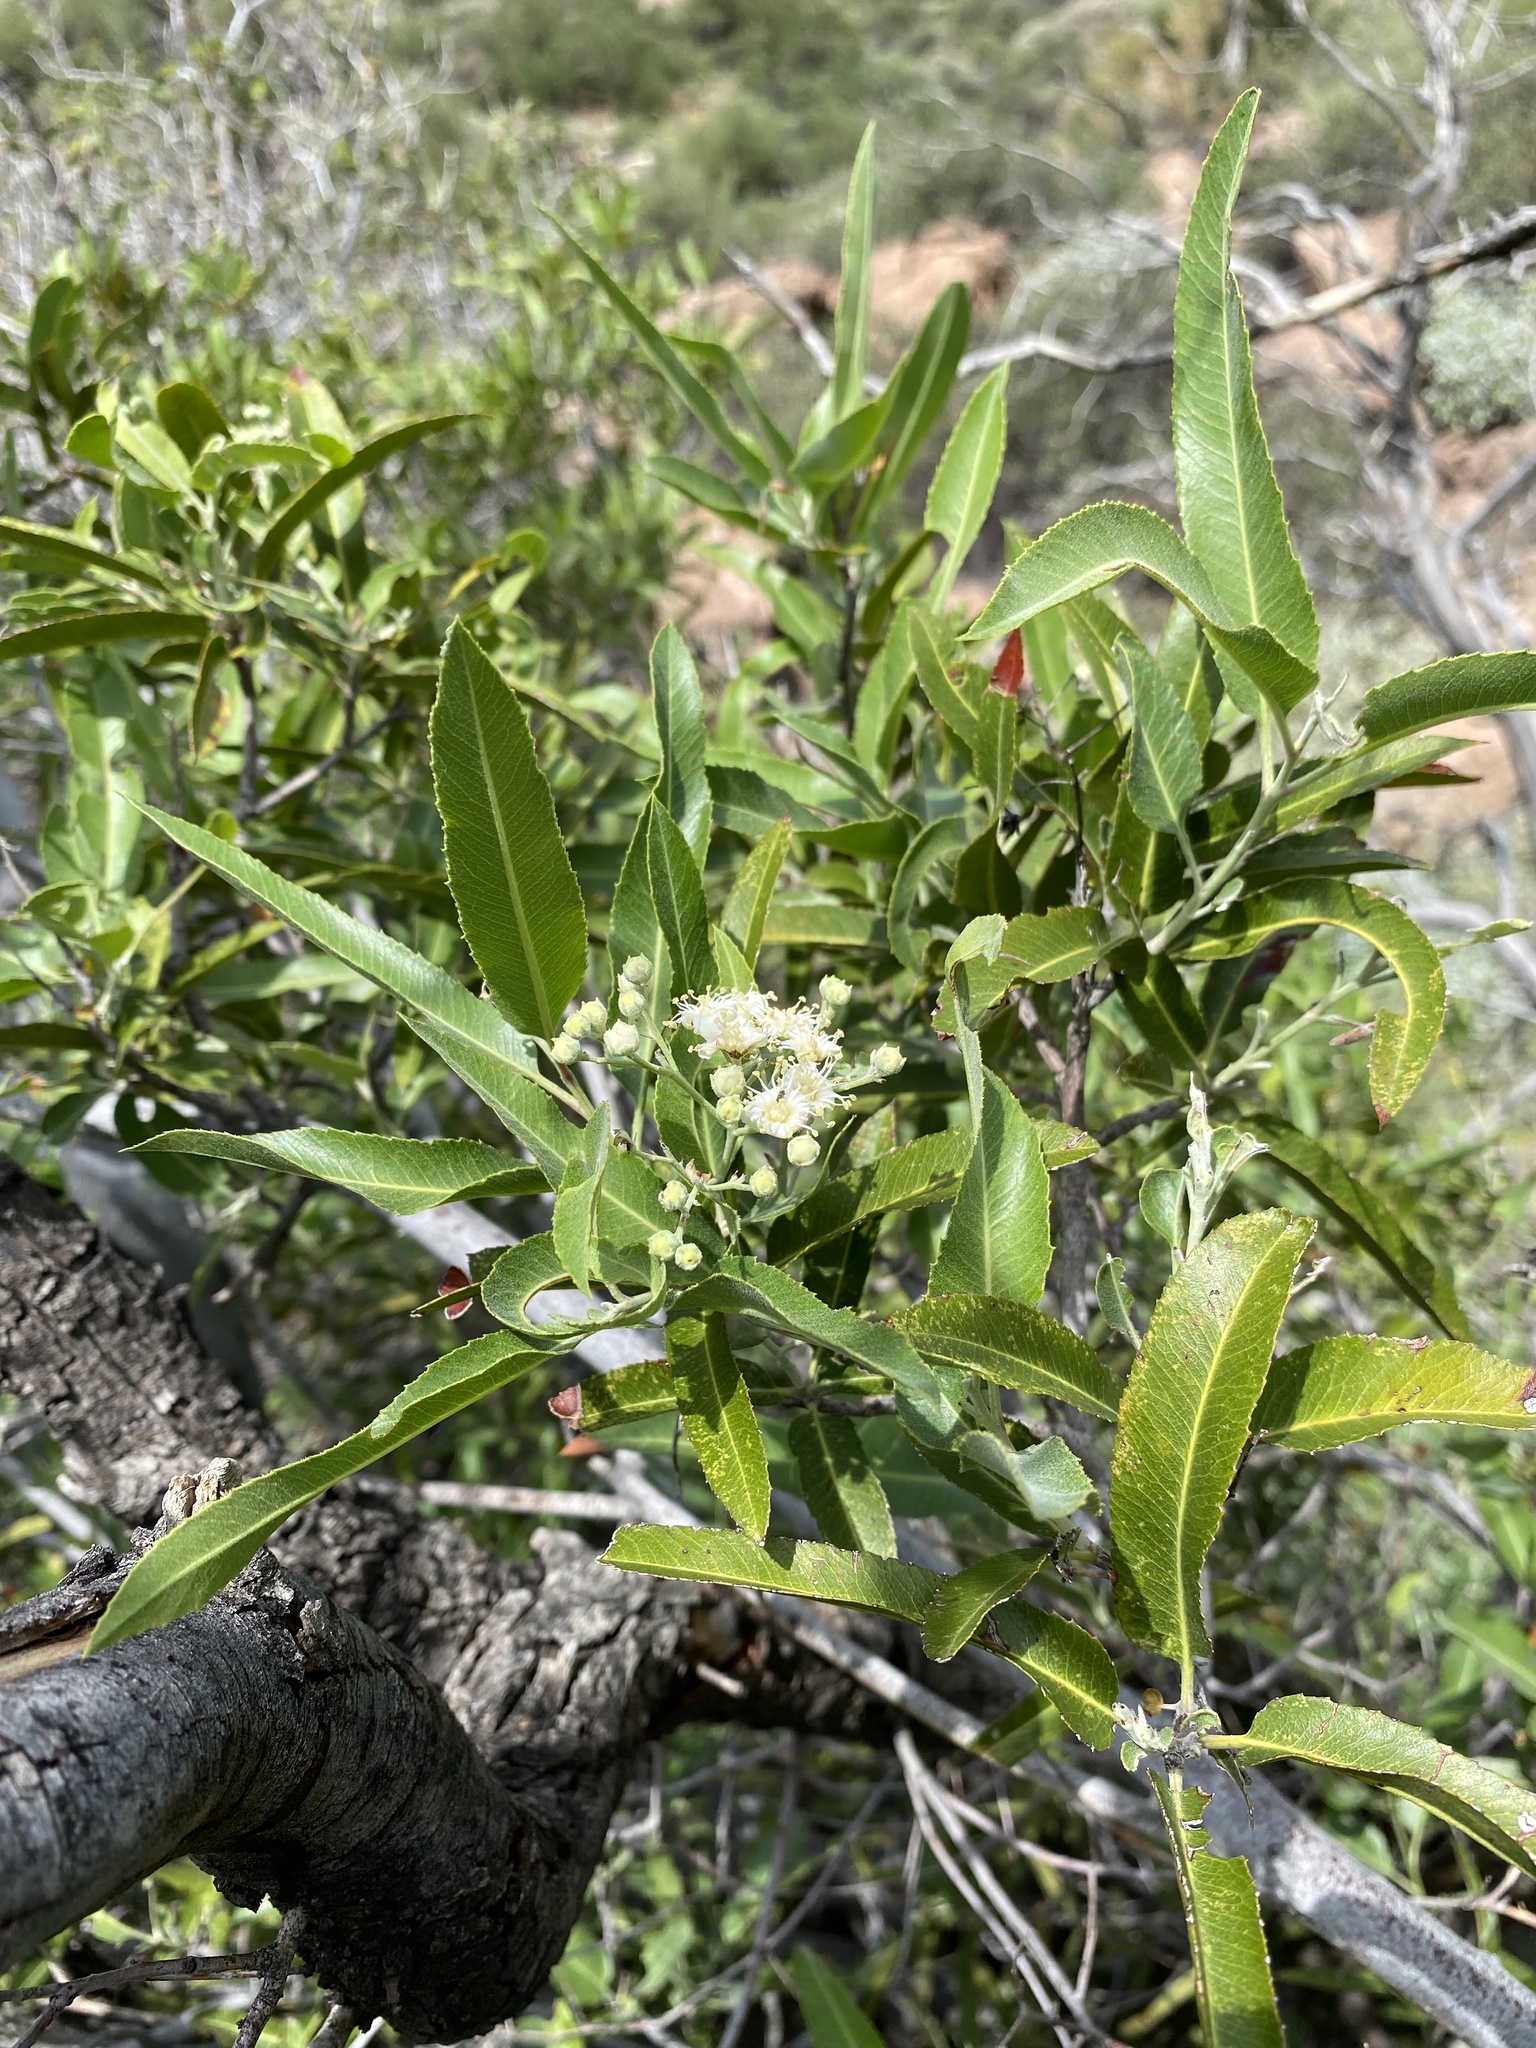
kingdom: Plantae
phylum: Tracheophyta
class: Magnoliopsida
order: Rosales
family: Rosaceae
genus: Vauquelinia
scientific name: Vauquelinia californica
